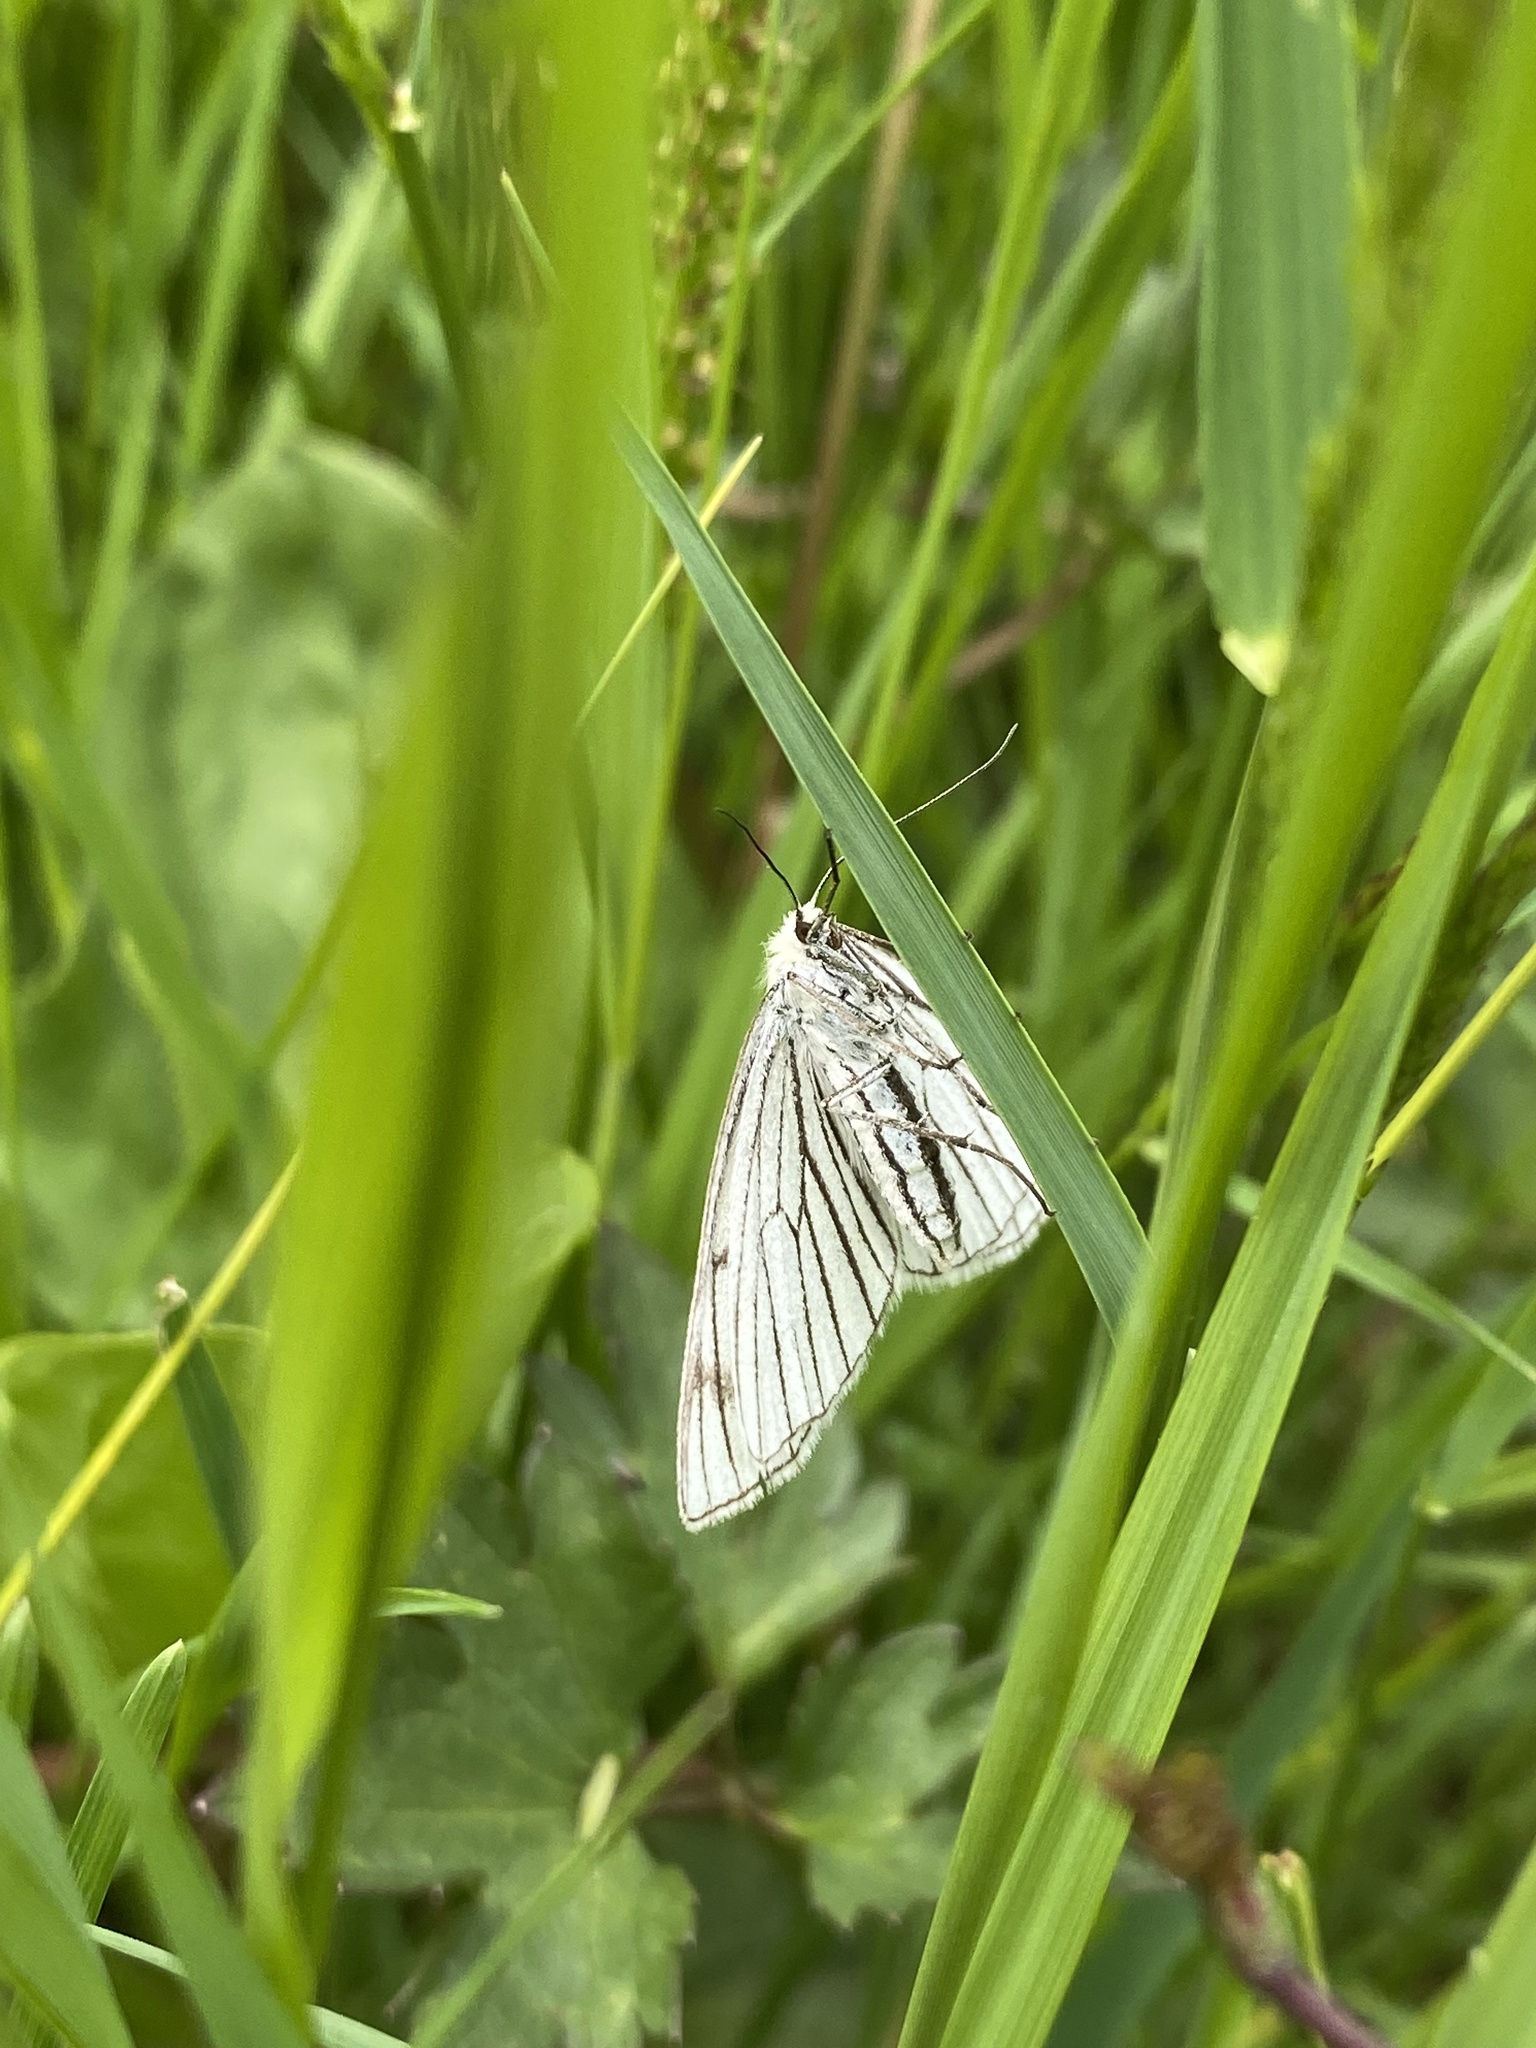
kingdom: Animalia
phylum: Arthropoda
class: Insecta
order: Lepidoptera
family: Geometridae
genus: Siona
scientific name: Siona lineata
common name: Black-veined moth
